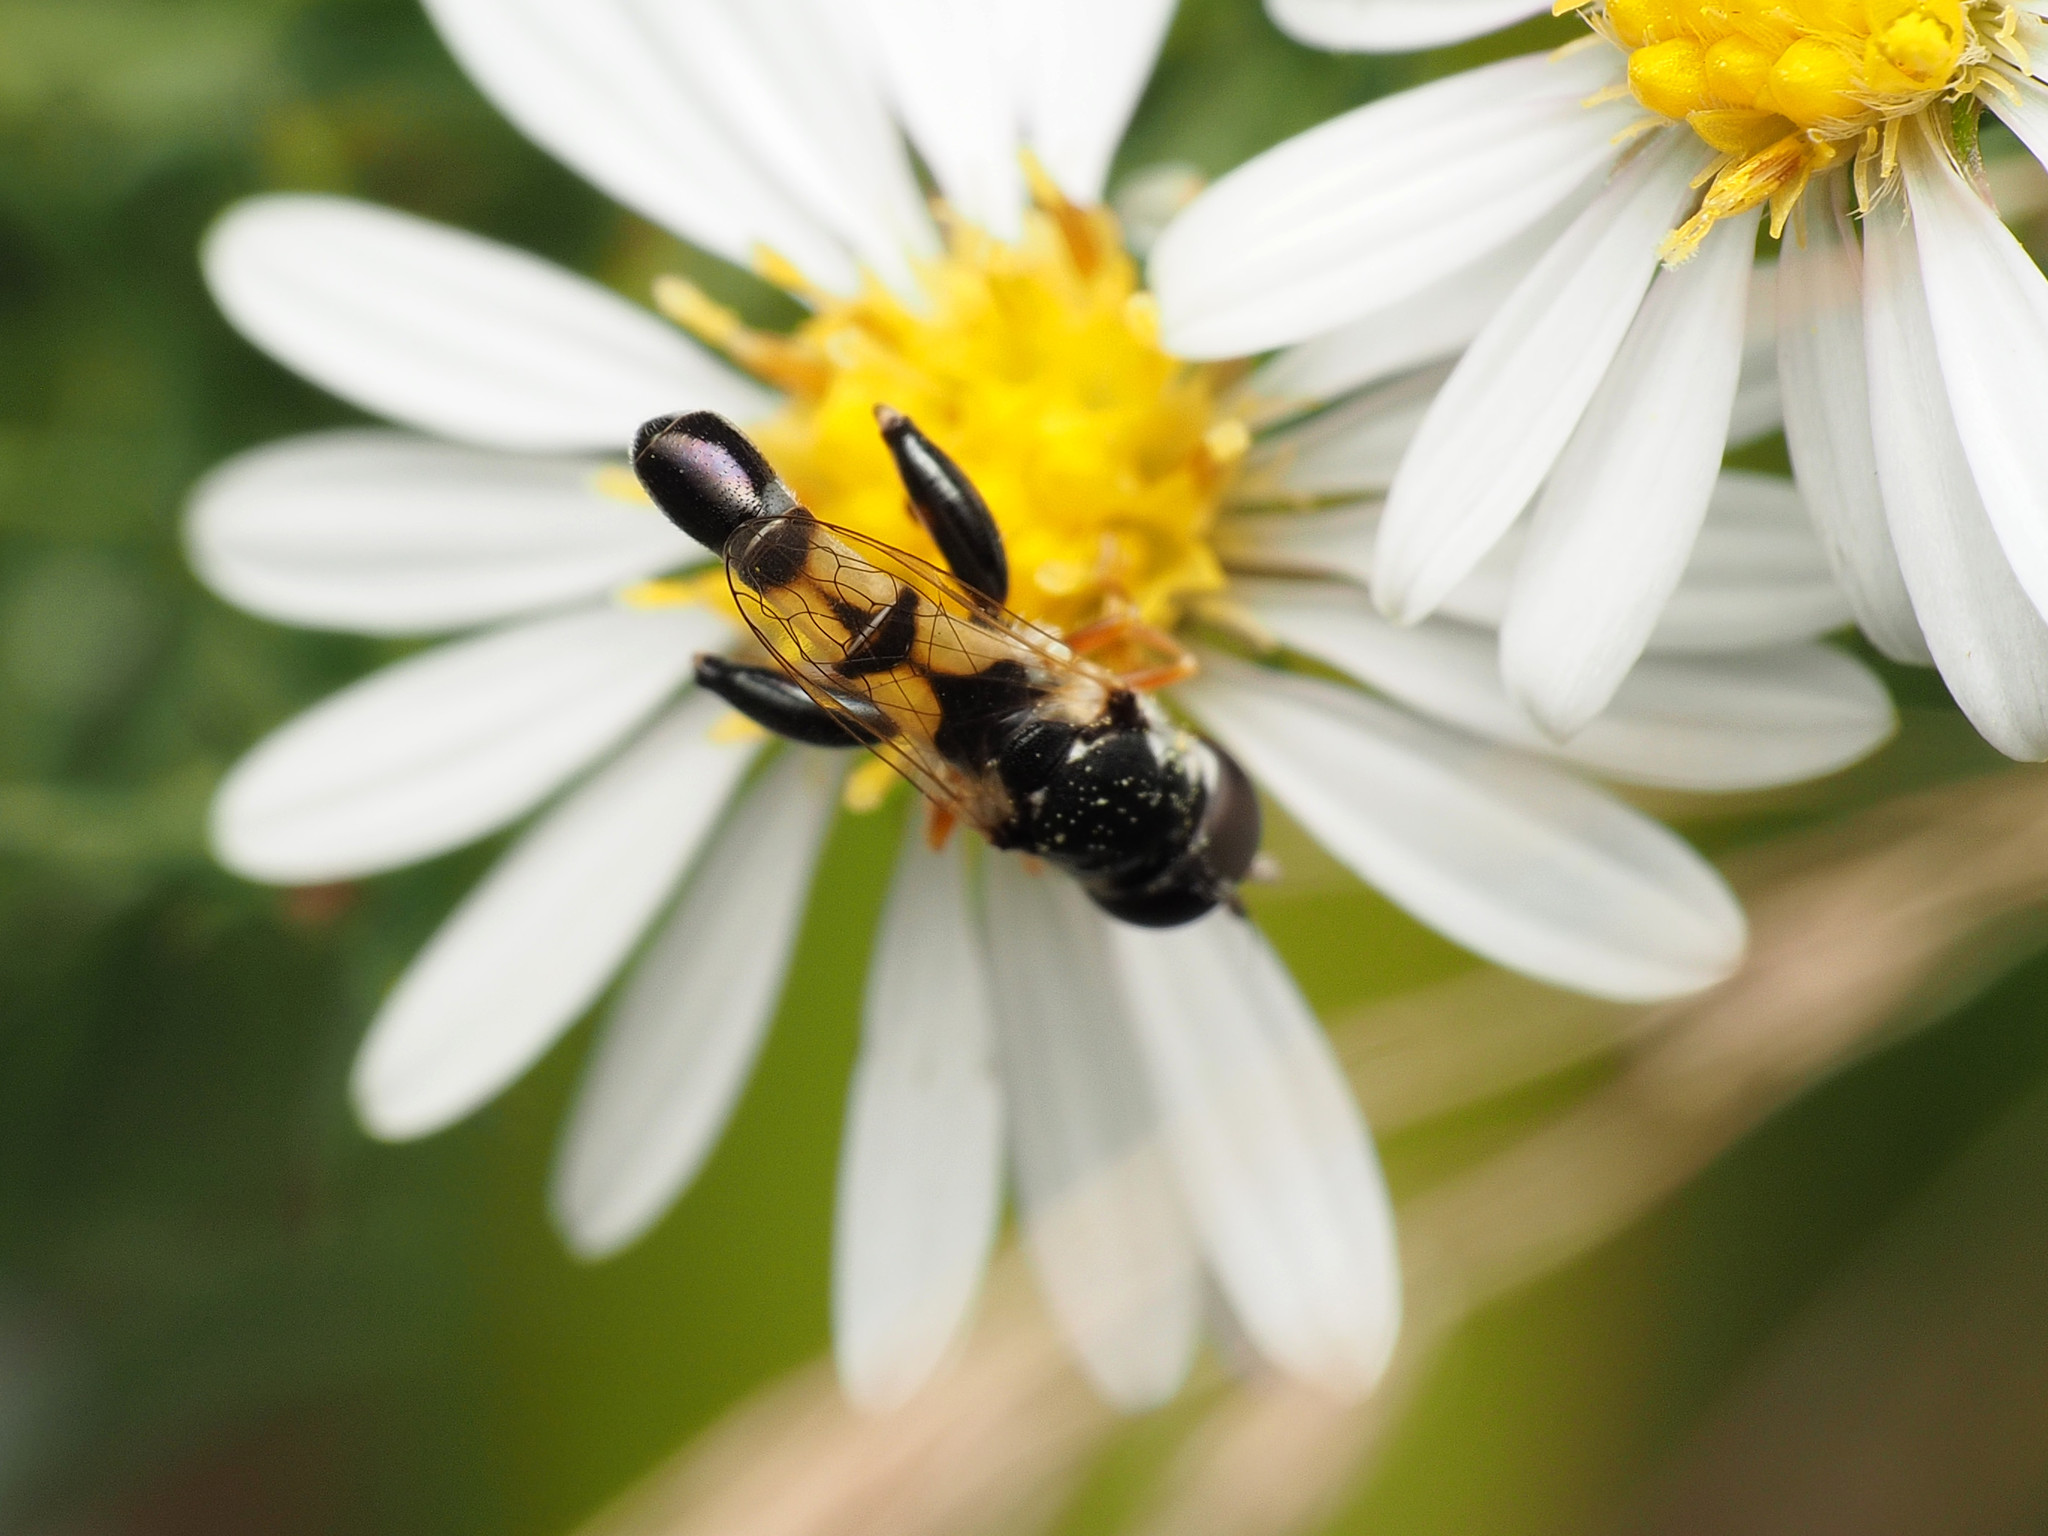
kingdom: Animalia
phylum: Arthropoda
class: Insecta
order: Diptera
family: Syrphidae
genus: Syritta
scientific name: Syritta flaviventris
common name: Syrphid fly
